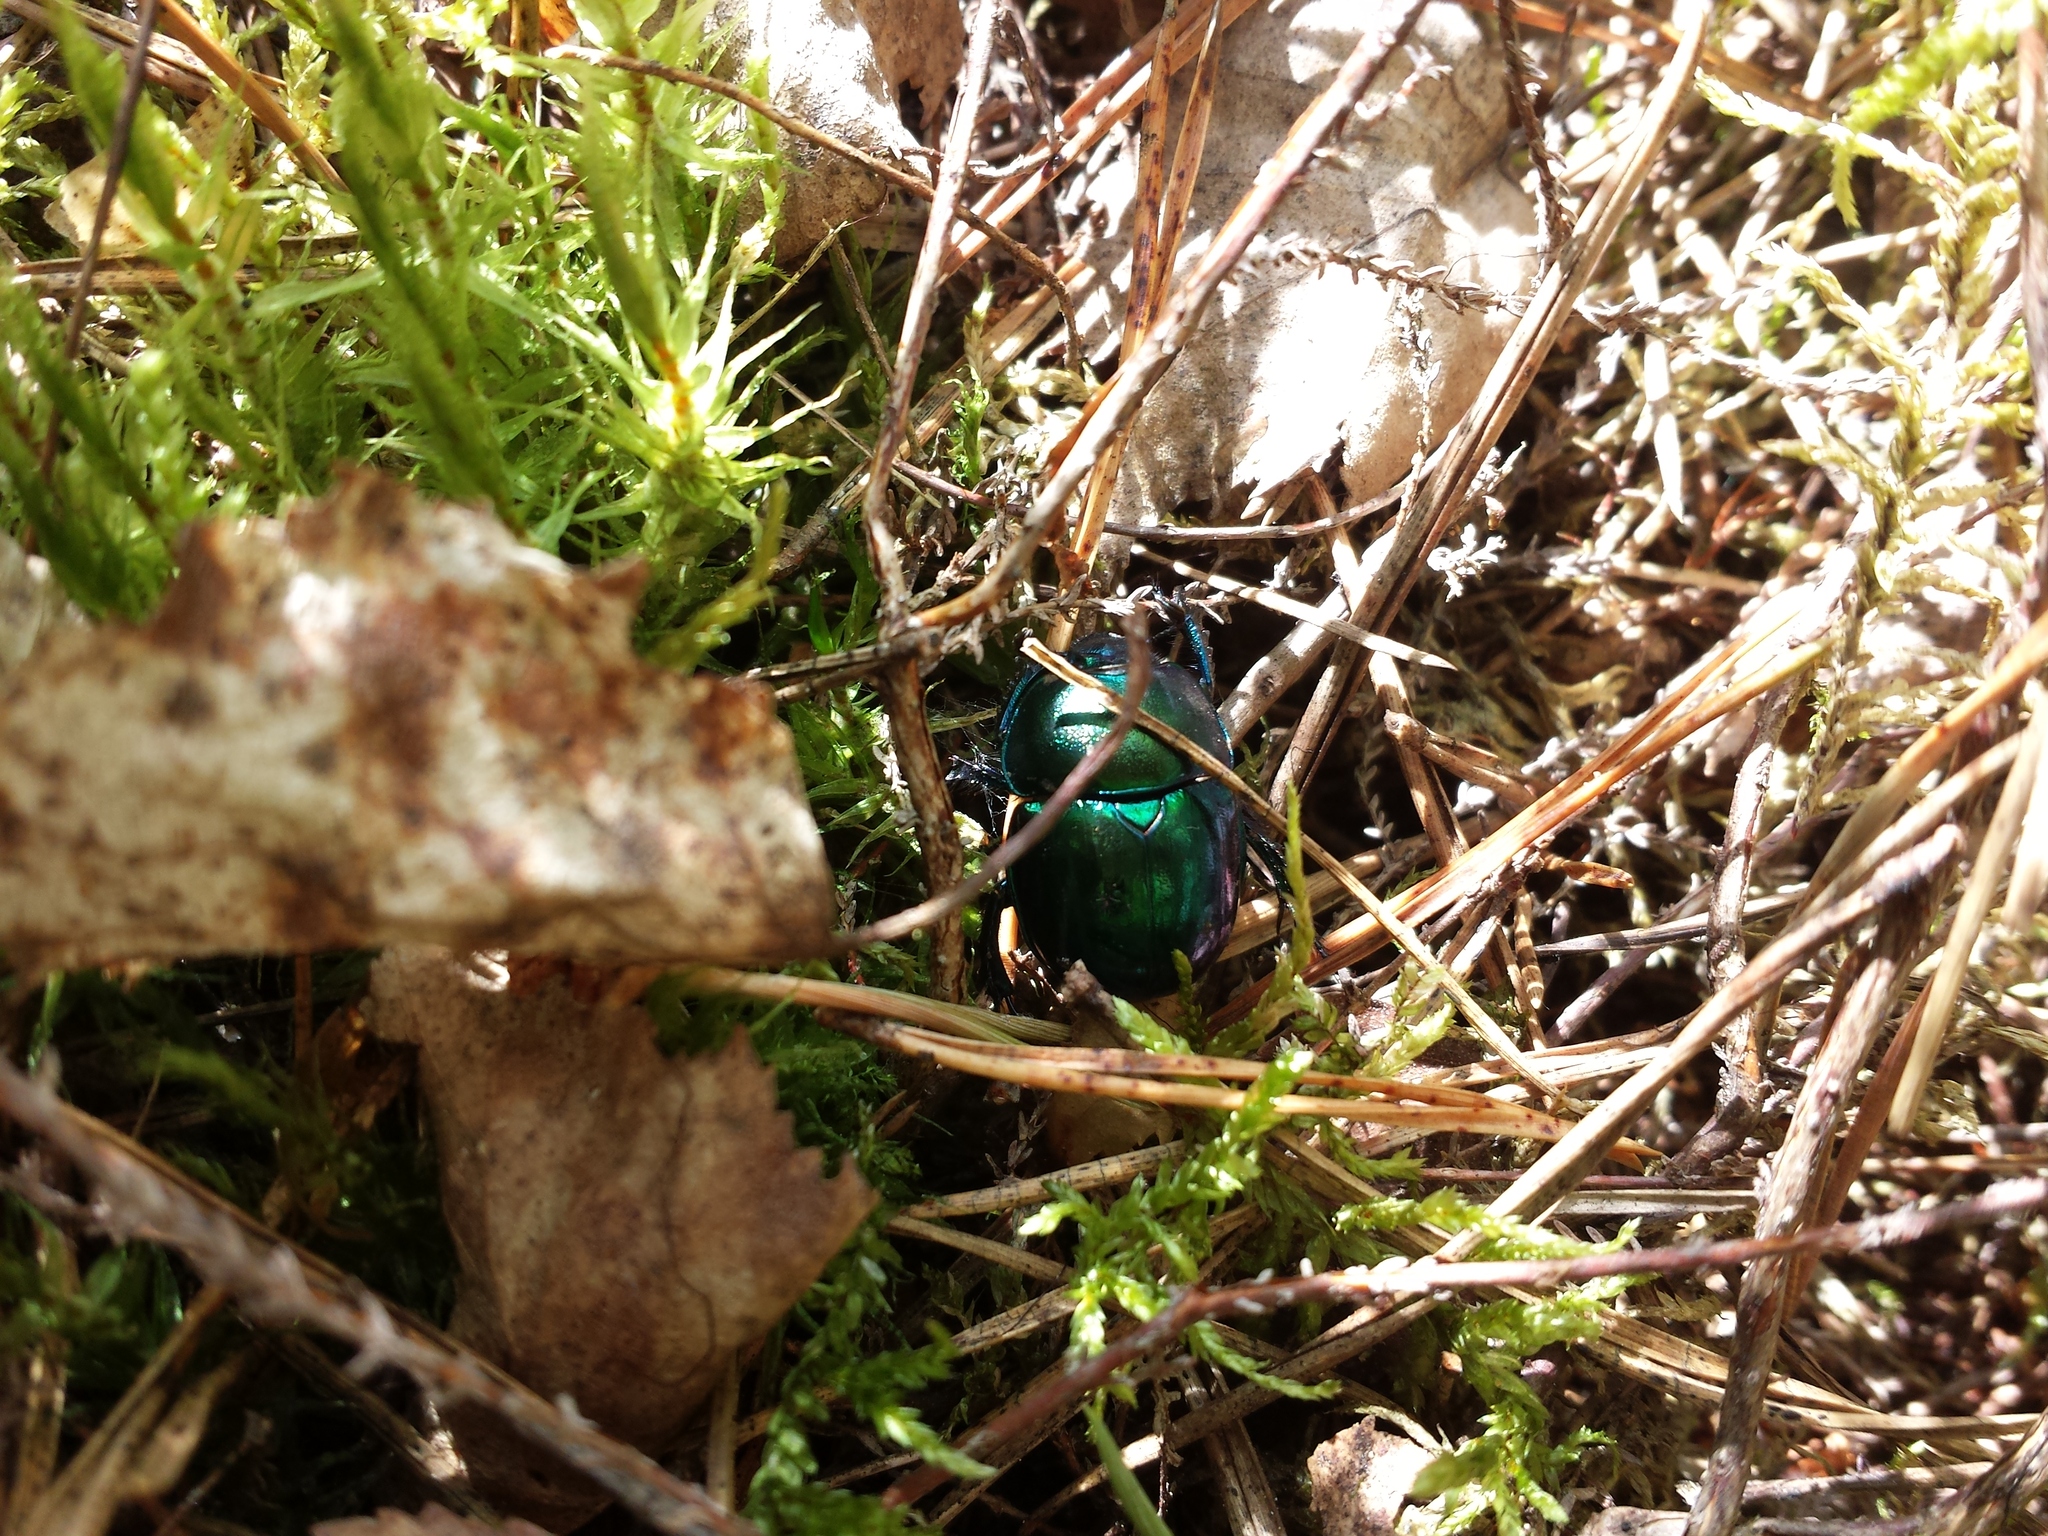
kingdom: Animalia
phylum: Arthropoda
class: Insecta
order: Coleoptera
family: Geotrupidae
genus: Trypocopris
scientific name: Trypocopris vernalis
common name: Spring dumbledor
